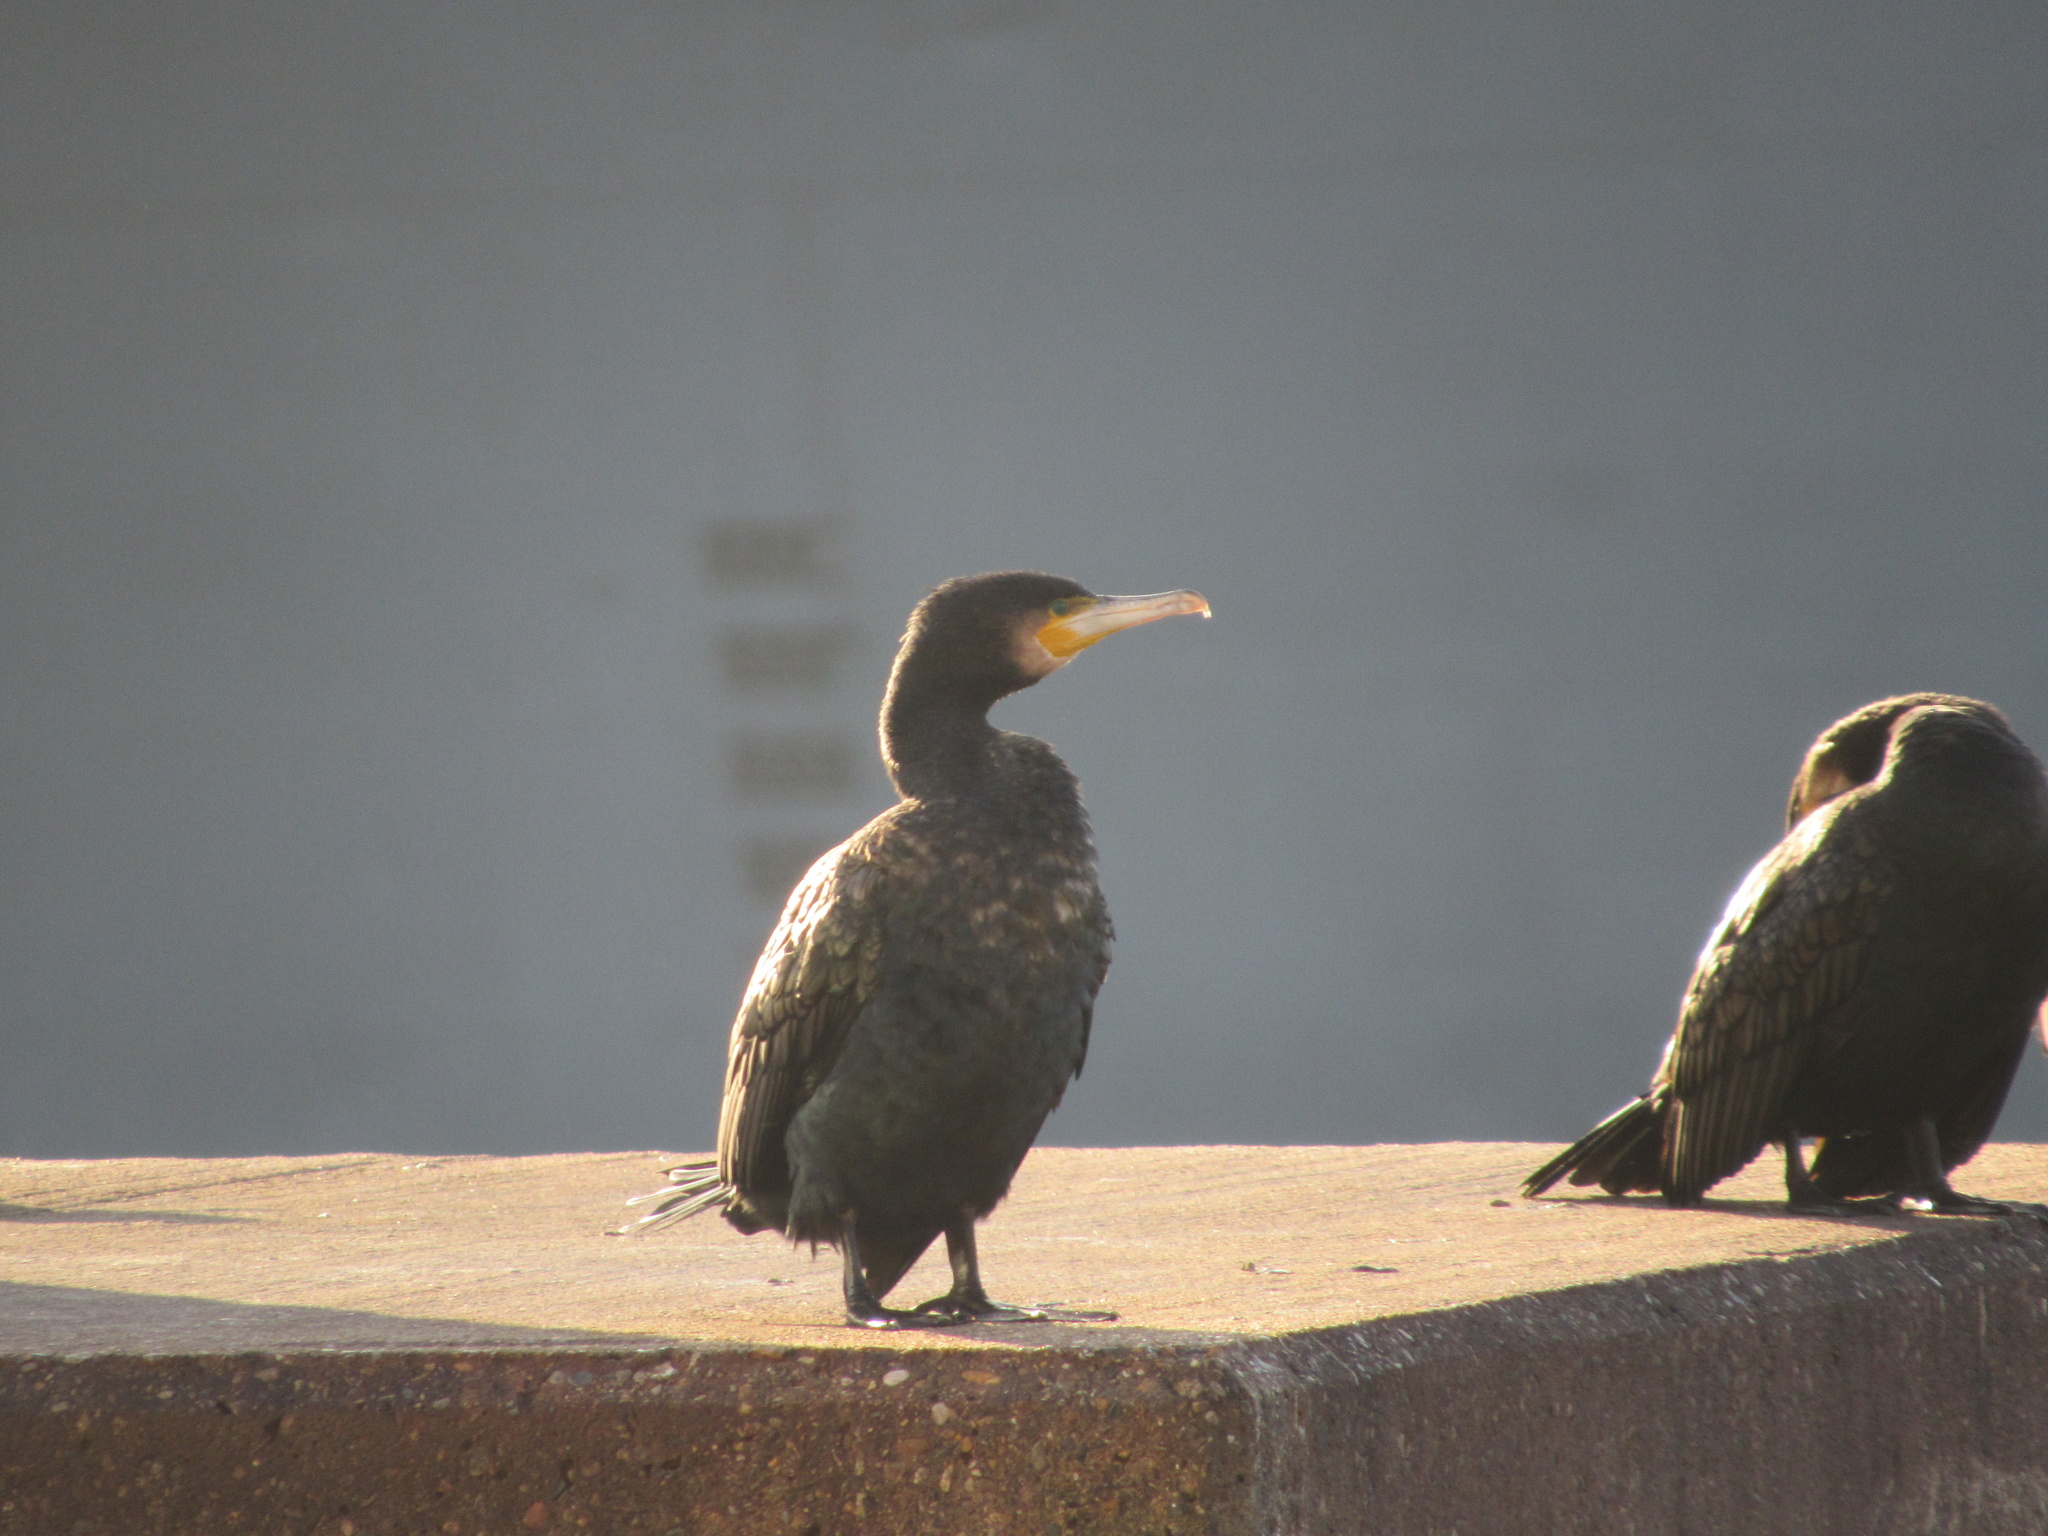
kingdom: Animalia
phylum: Chordata
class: Aves
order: Suliformes
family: Phalacrocoracidae
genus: Phalacrocorax
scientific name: Phalacrocorax carbo
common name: Great cormorant
